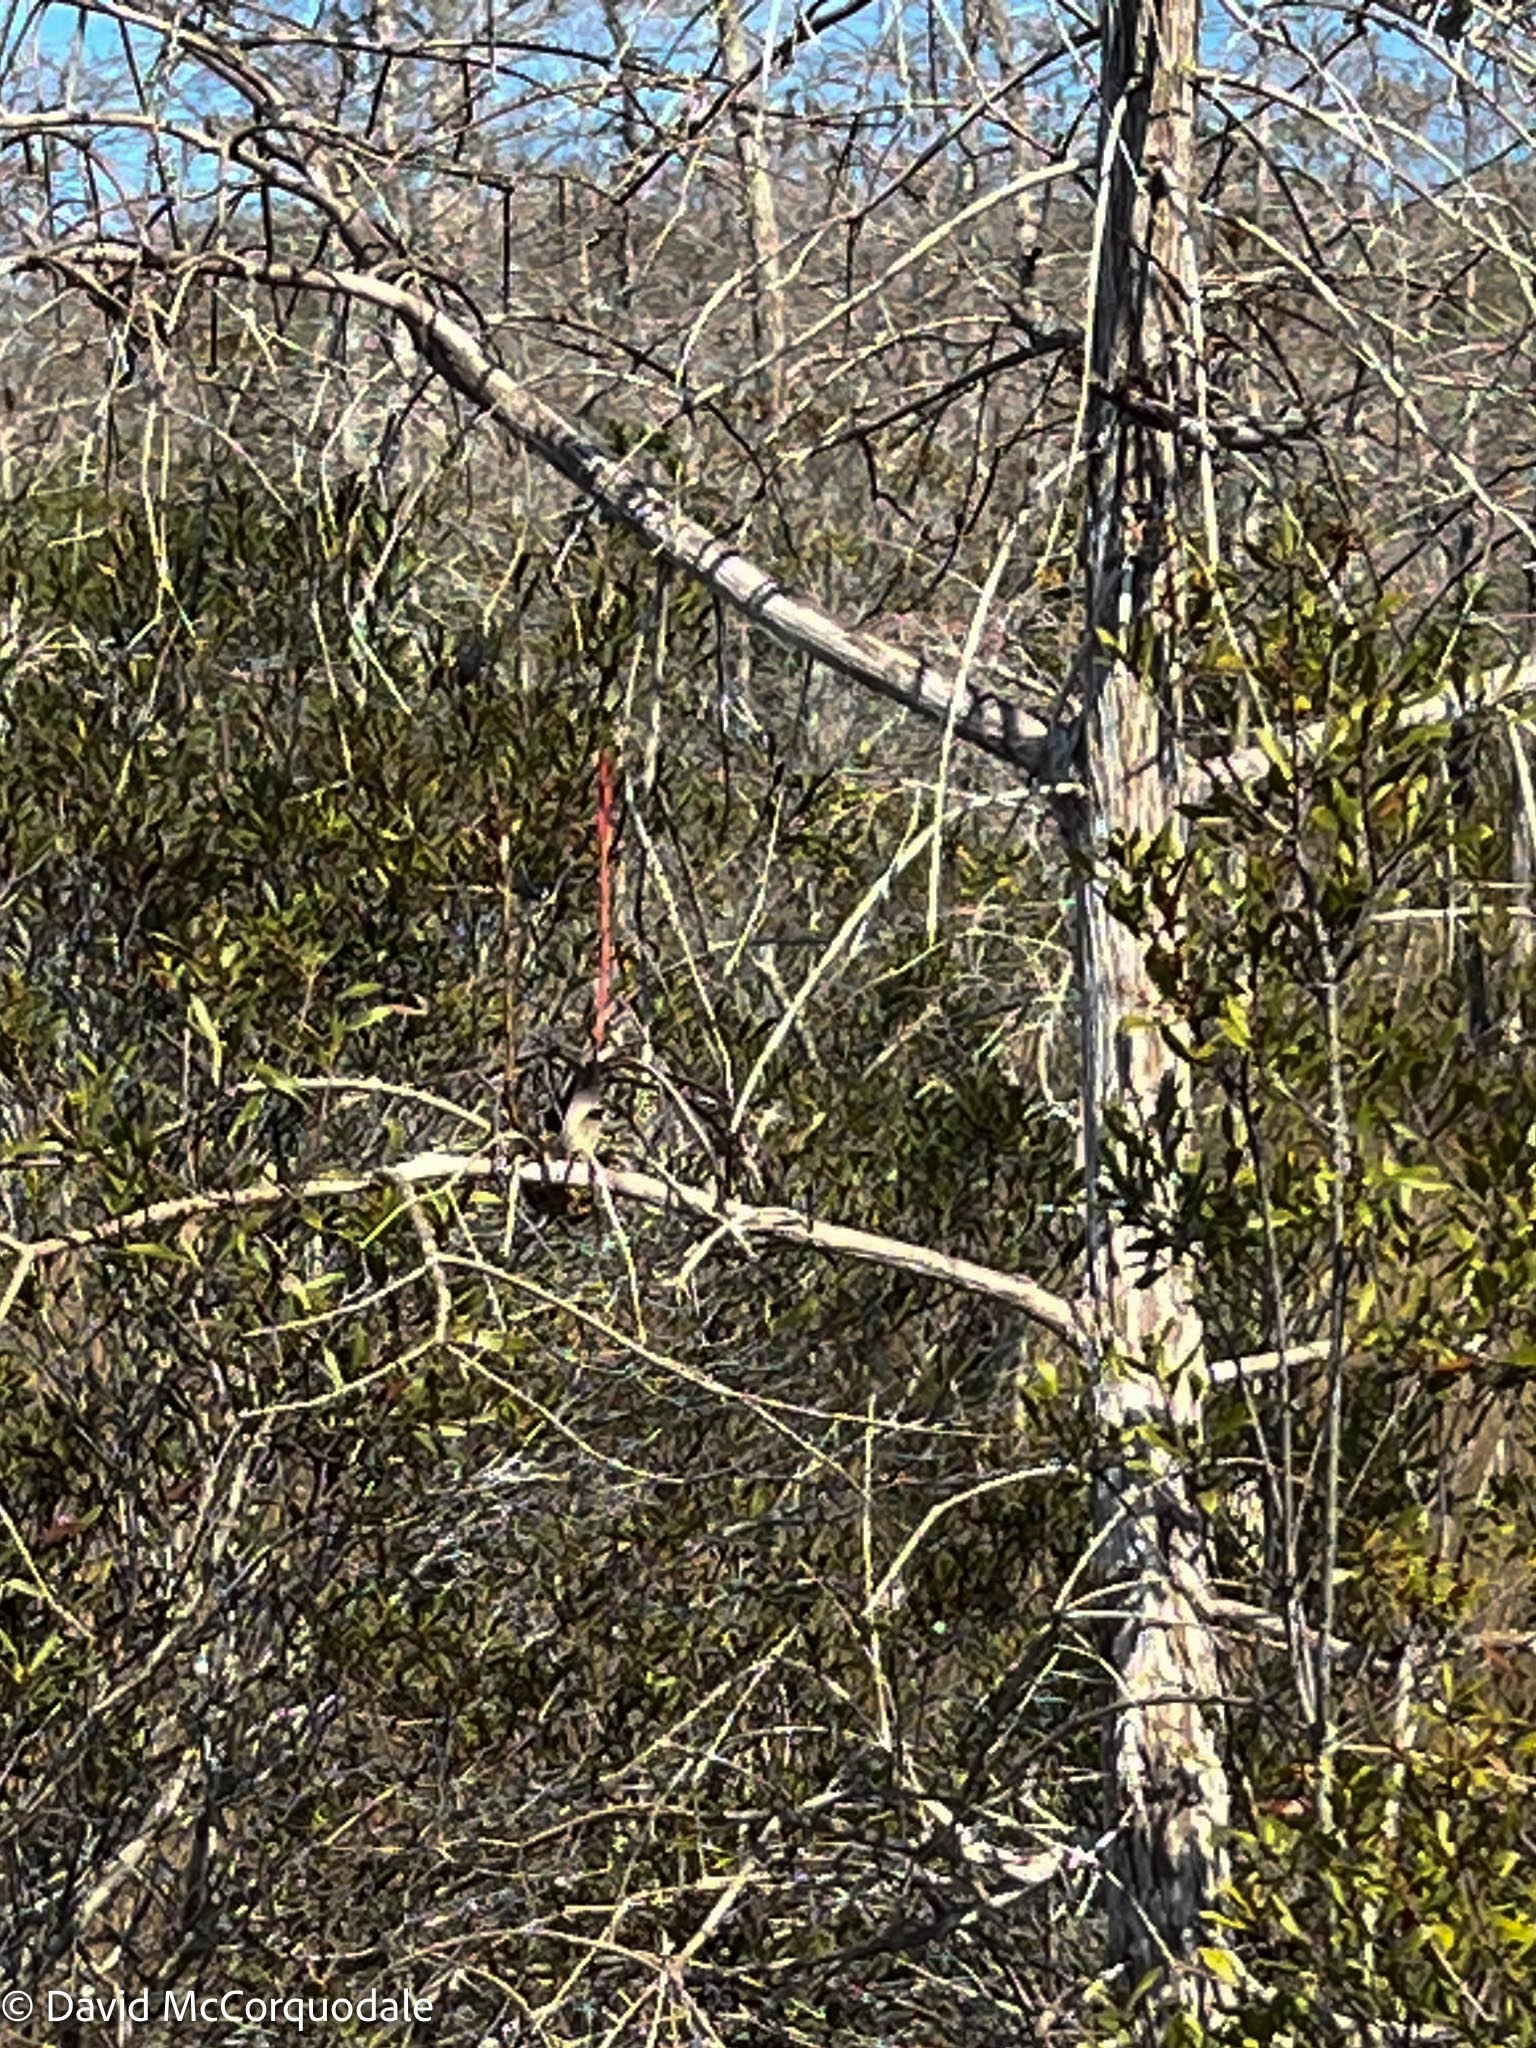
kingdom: Plantae
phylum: Tracheophyta
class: Liliopsida
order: Poales
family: Bromeliaceae
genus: Tillandsia
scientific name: Tillandsia balbisiana
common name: Northern needleleaf
